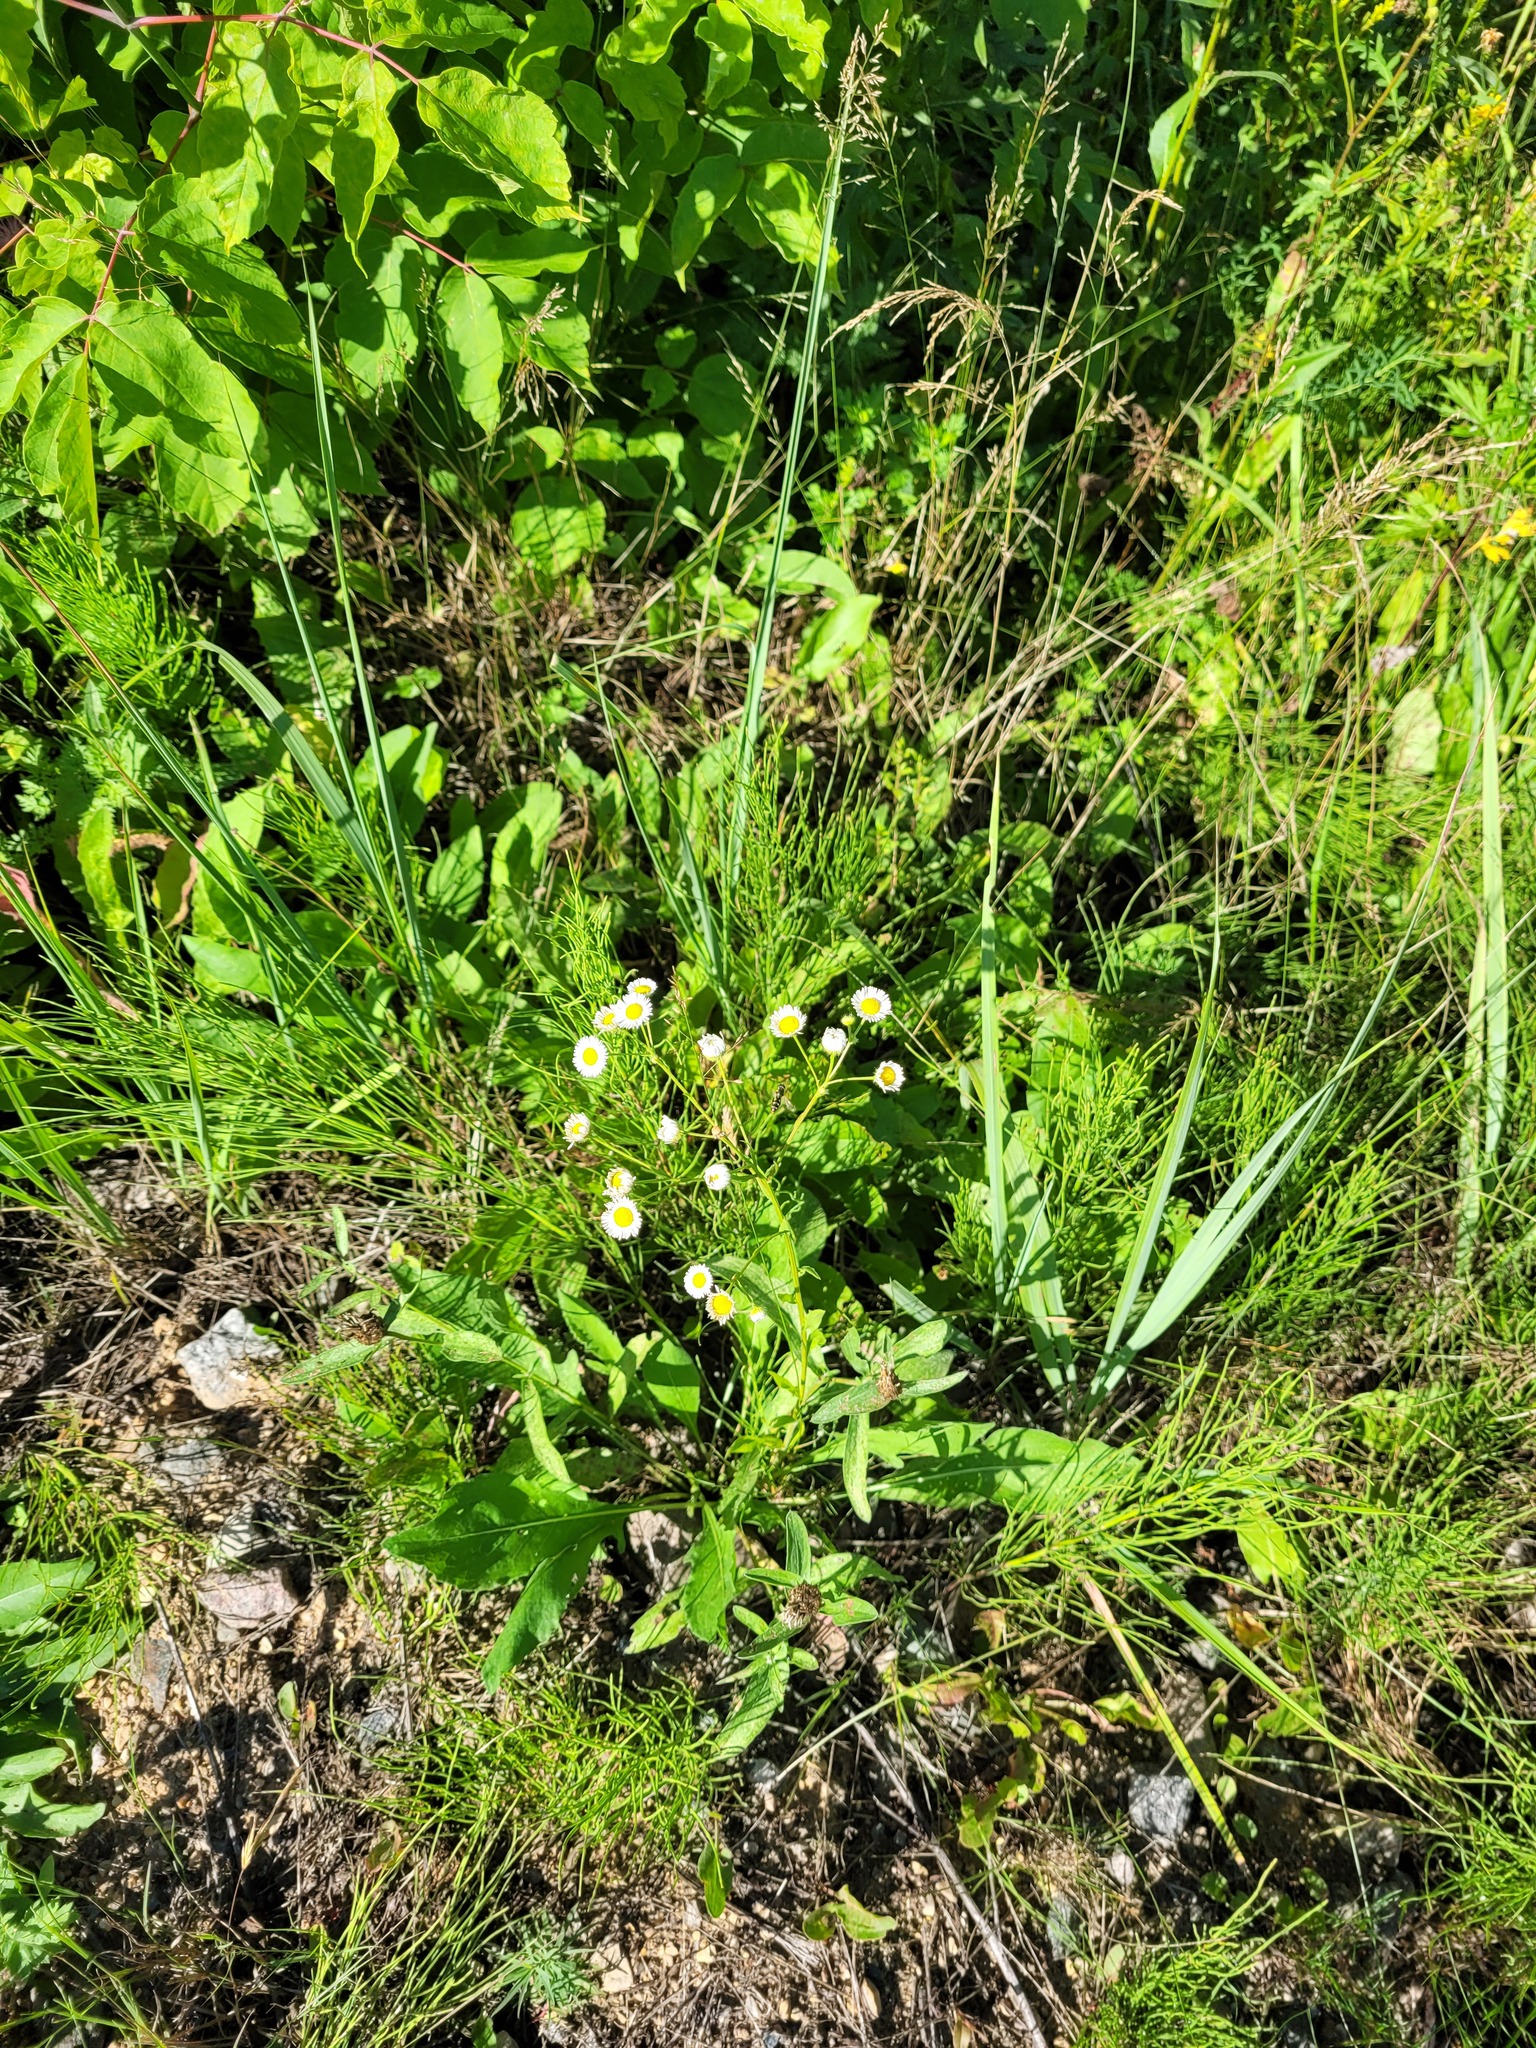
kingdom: Plantae
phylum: Tracheophyta
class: Magnoliopsida
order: Asterales
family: Asteraceae
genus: Erigeron
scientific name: Erigeron annuus
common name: Tall fleabane
